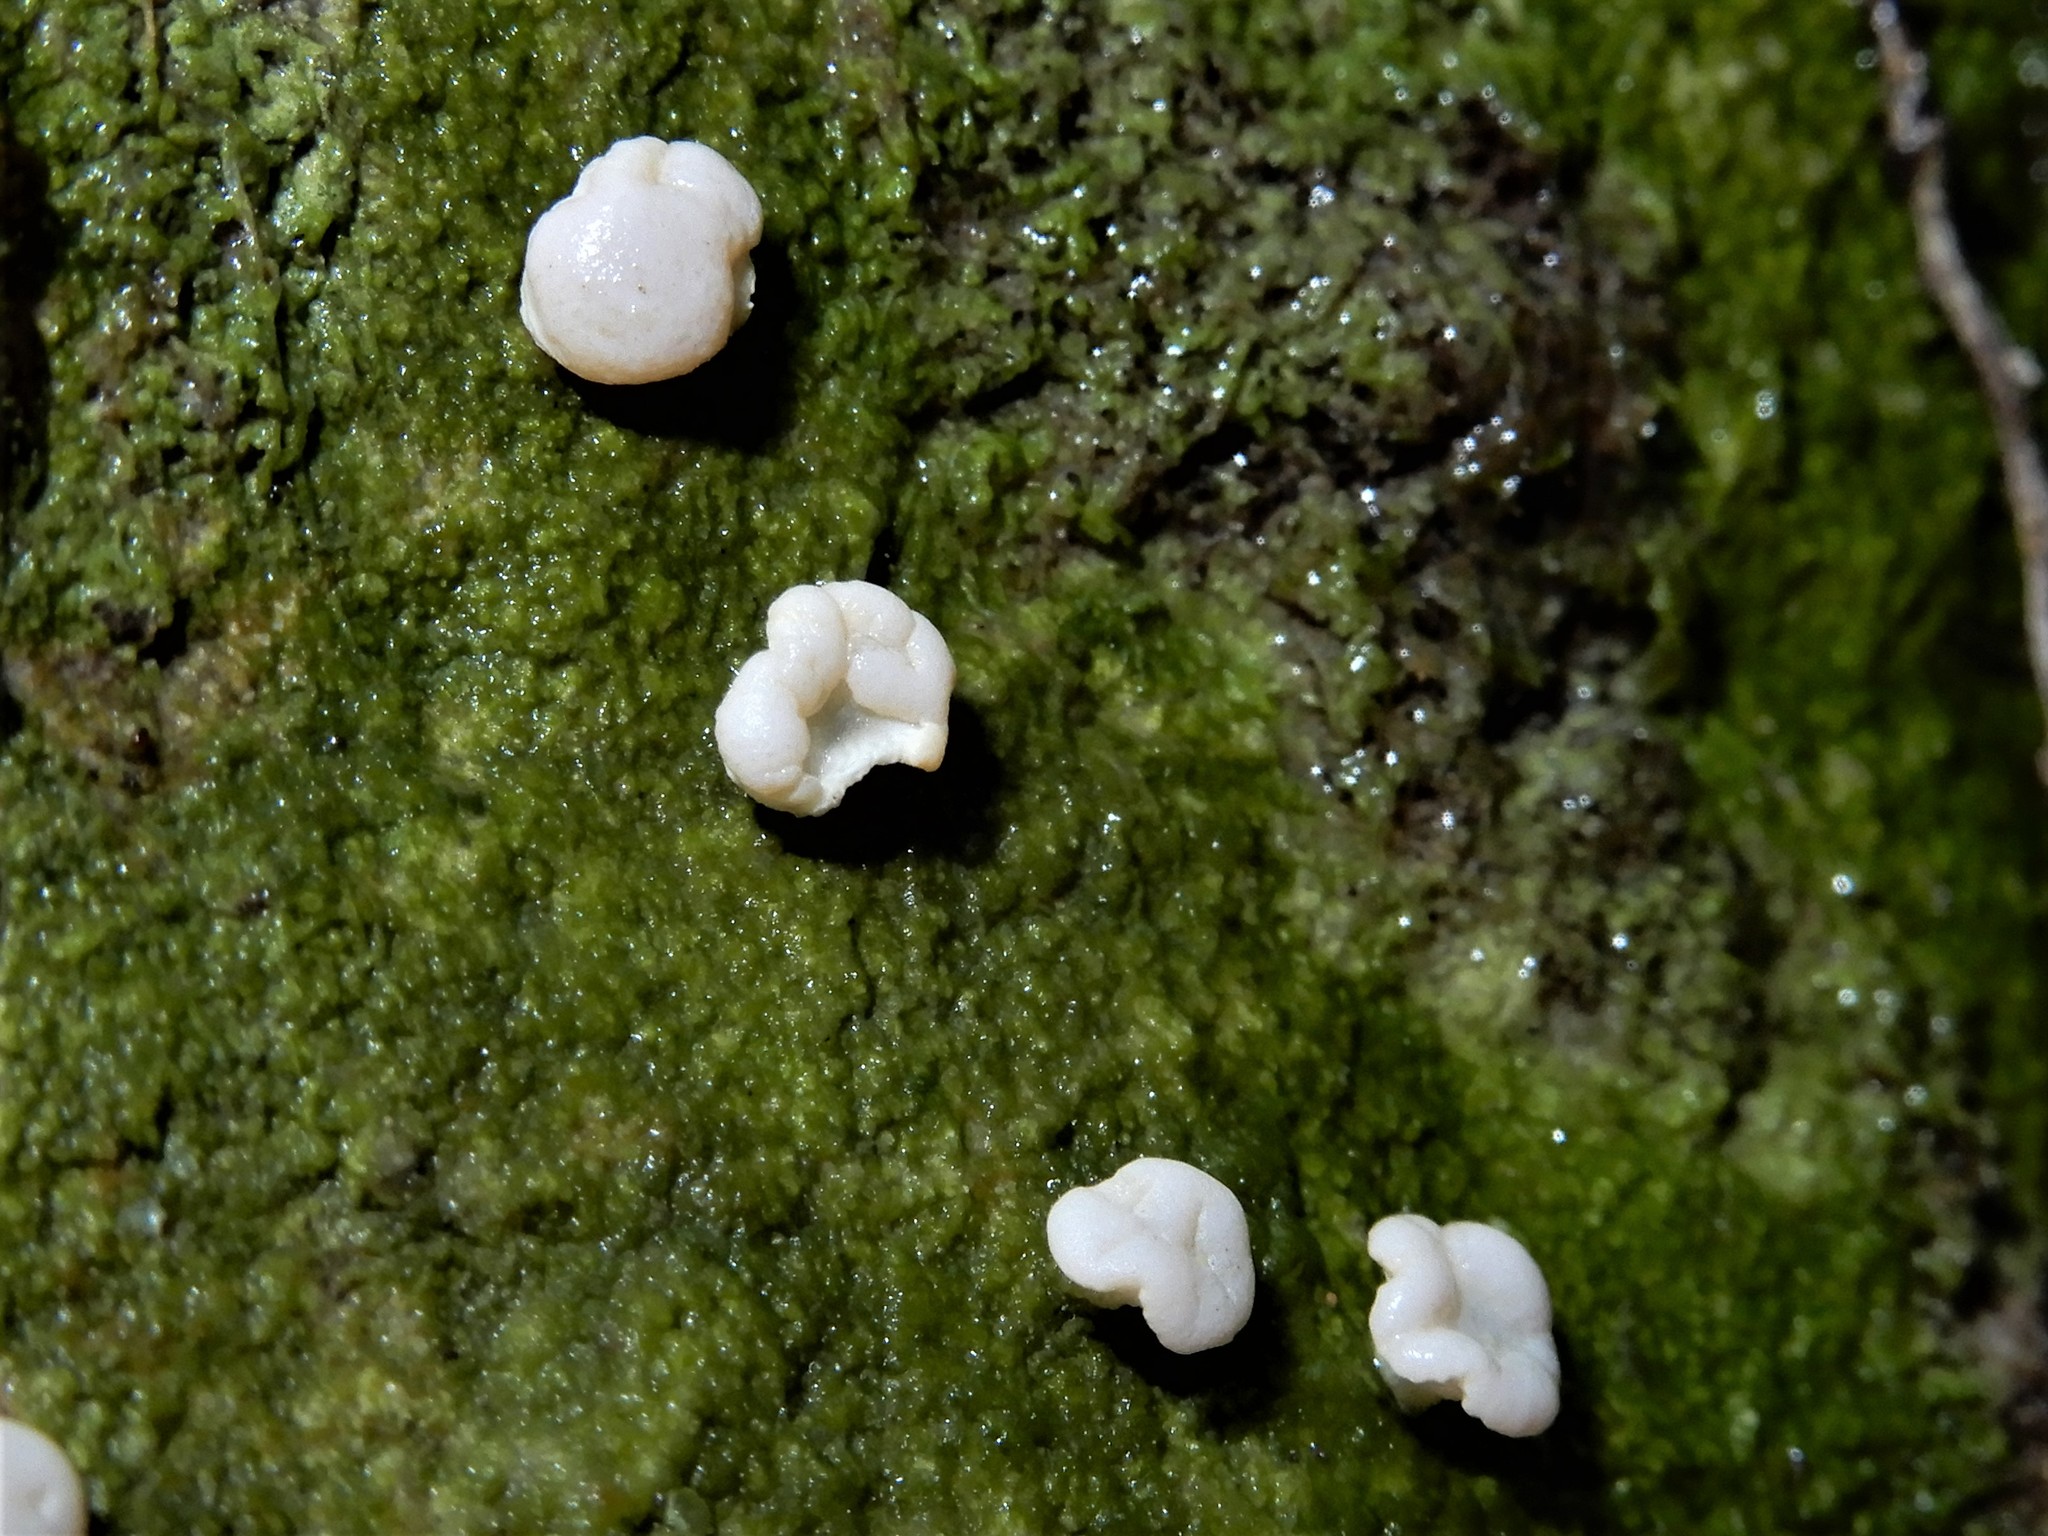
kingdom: Fungi
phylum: Ascomycota
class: Lecanoromycetes
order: Pertusariales
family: Icmadophilaceae
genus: Dibaeis
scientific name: Dibaeis absoluta
